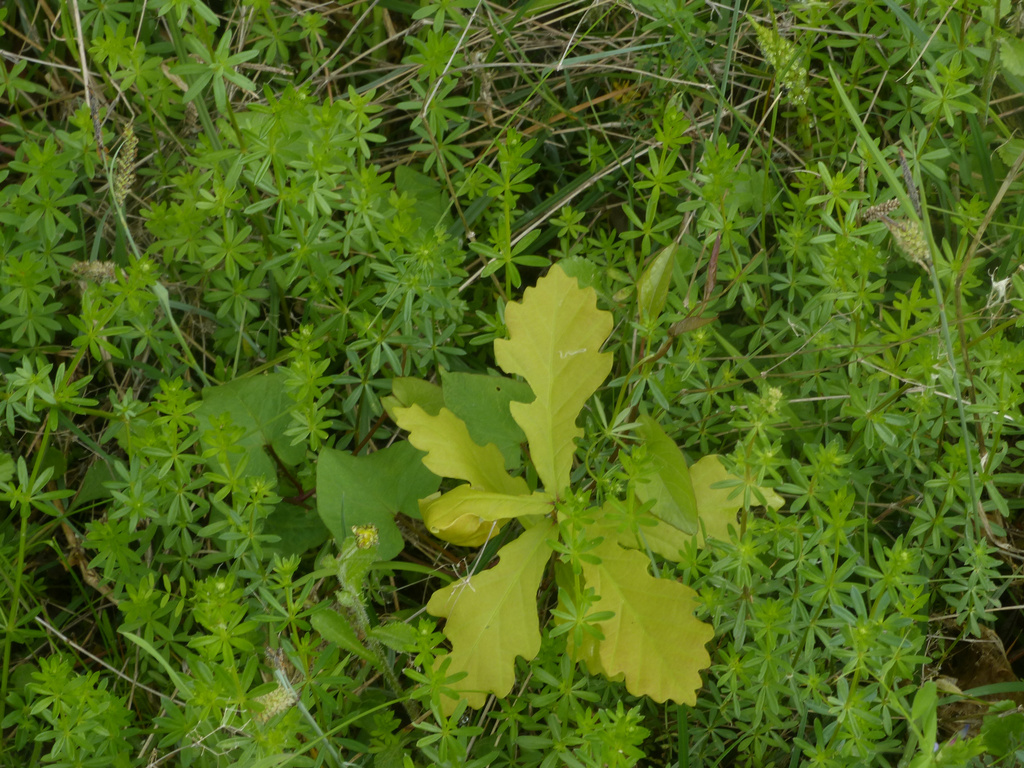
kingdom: Plantae
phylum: Tracheophyta
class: Magnoliopsida
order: Fagales
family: Fagaceae
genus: Quercus
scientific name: Quercus robur
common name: Pedunculate oak
